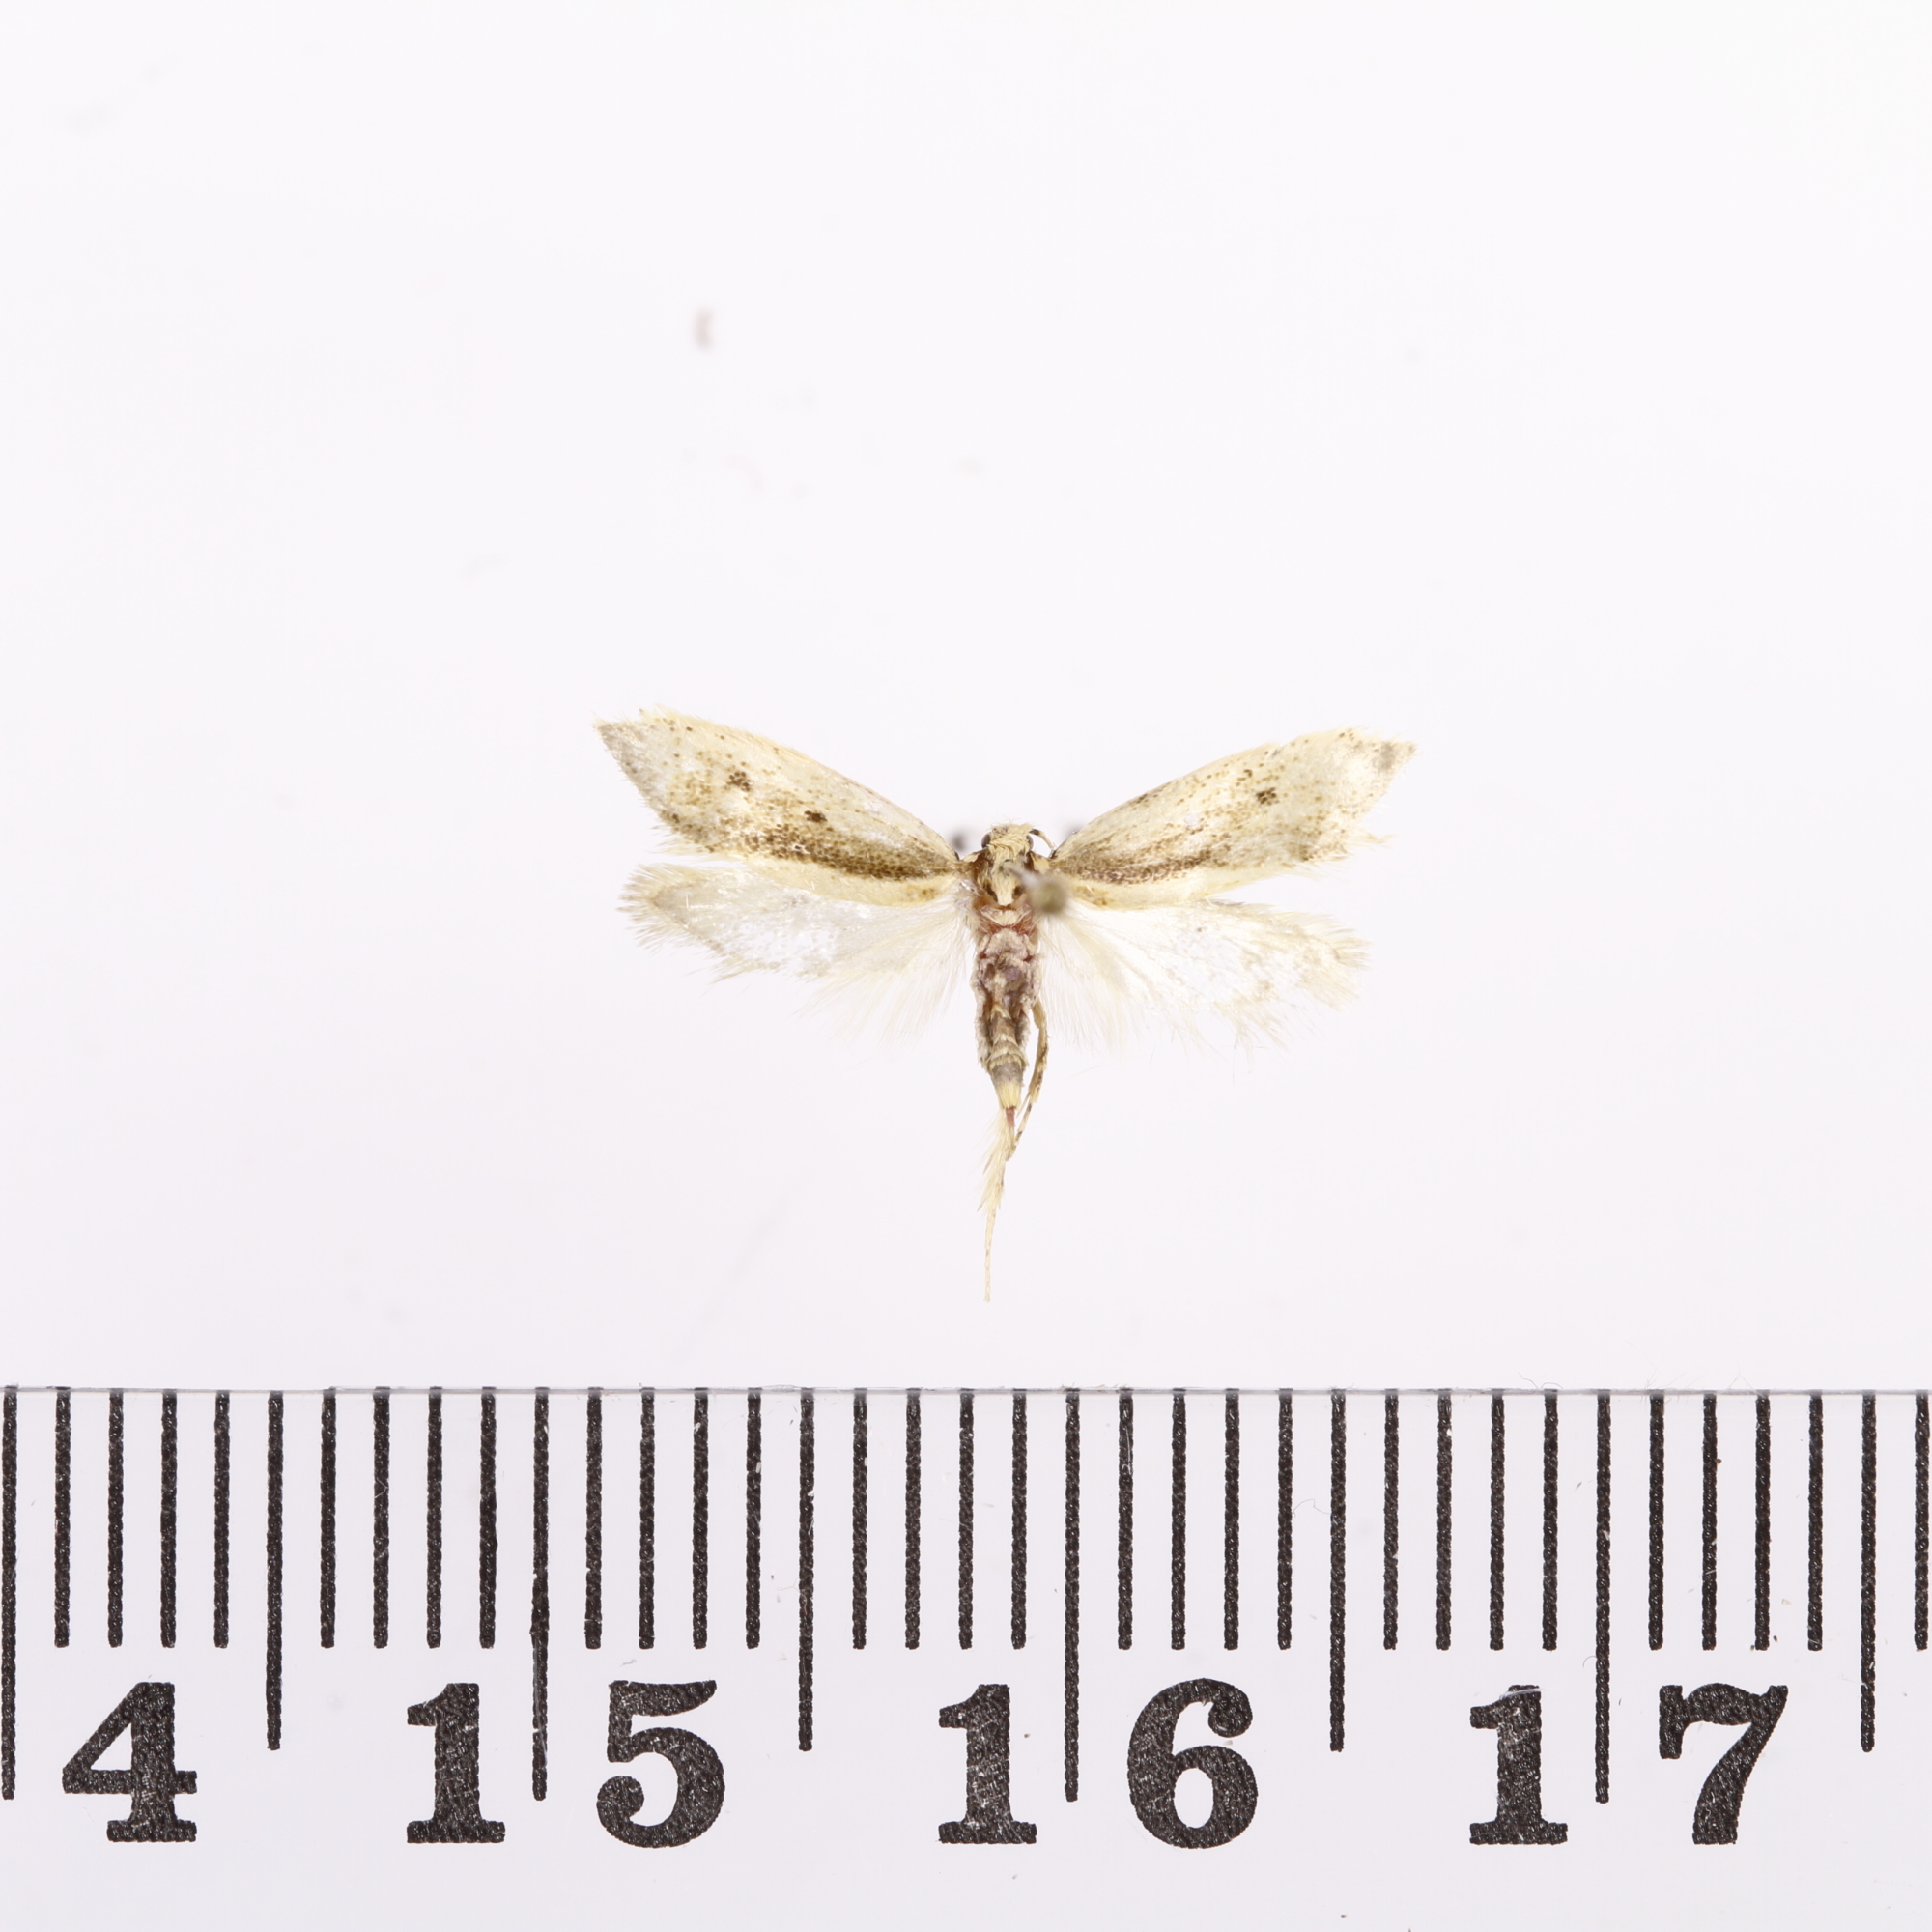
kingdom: Animalia
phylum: Arthropoda
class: Insecta
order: Lepidoptera
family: Oecophoridae
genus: Tingena
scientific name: Tingena chloradelpha
